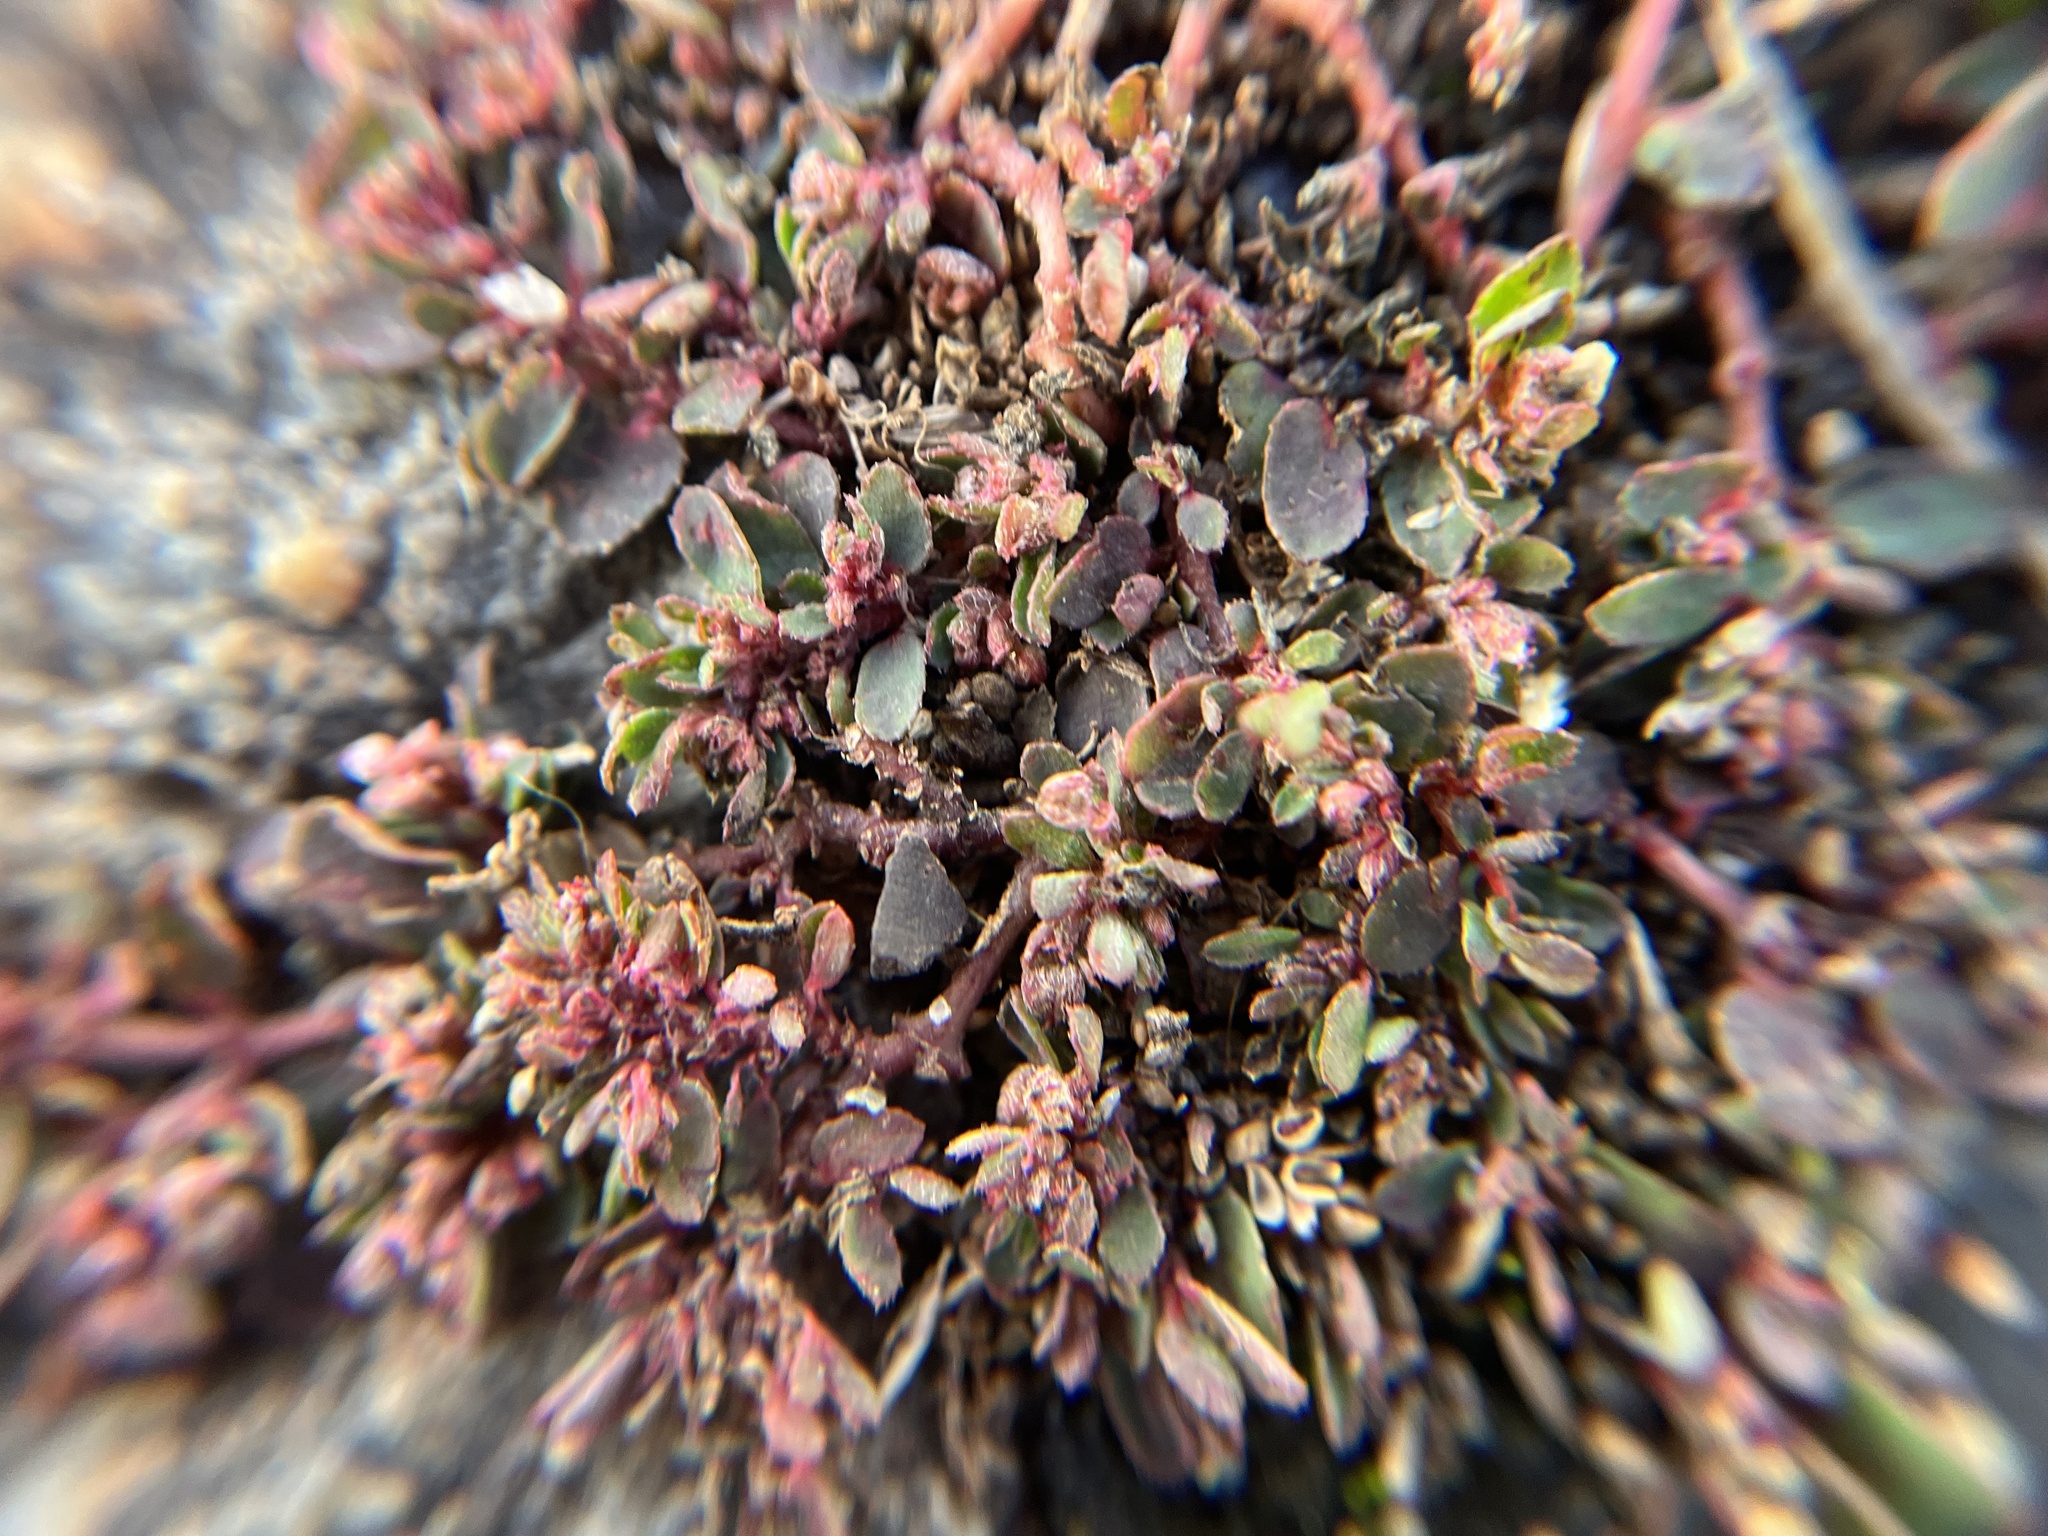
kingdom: Plantae
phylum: Tracheophyta
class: Magnoliopsida
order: Malpighiales
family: Euphorbiaceae
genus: Euphorbia
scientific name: Euphorbia maculata
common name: Spotted spurge
